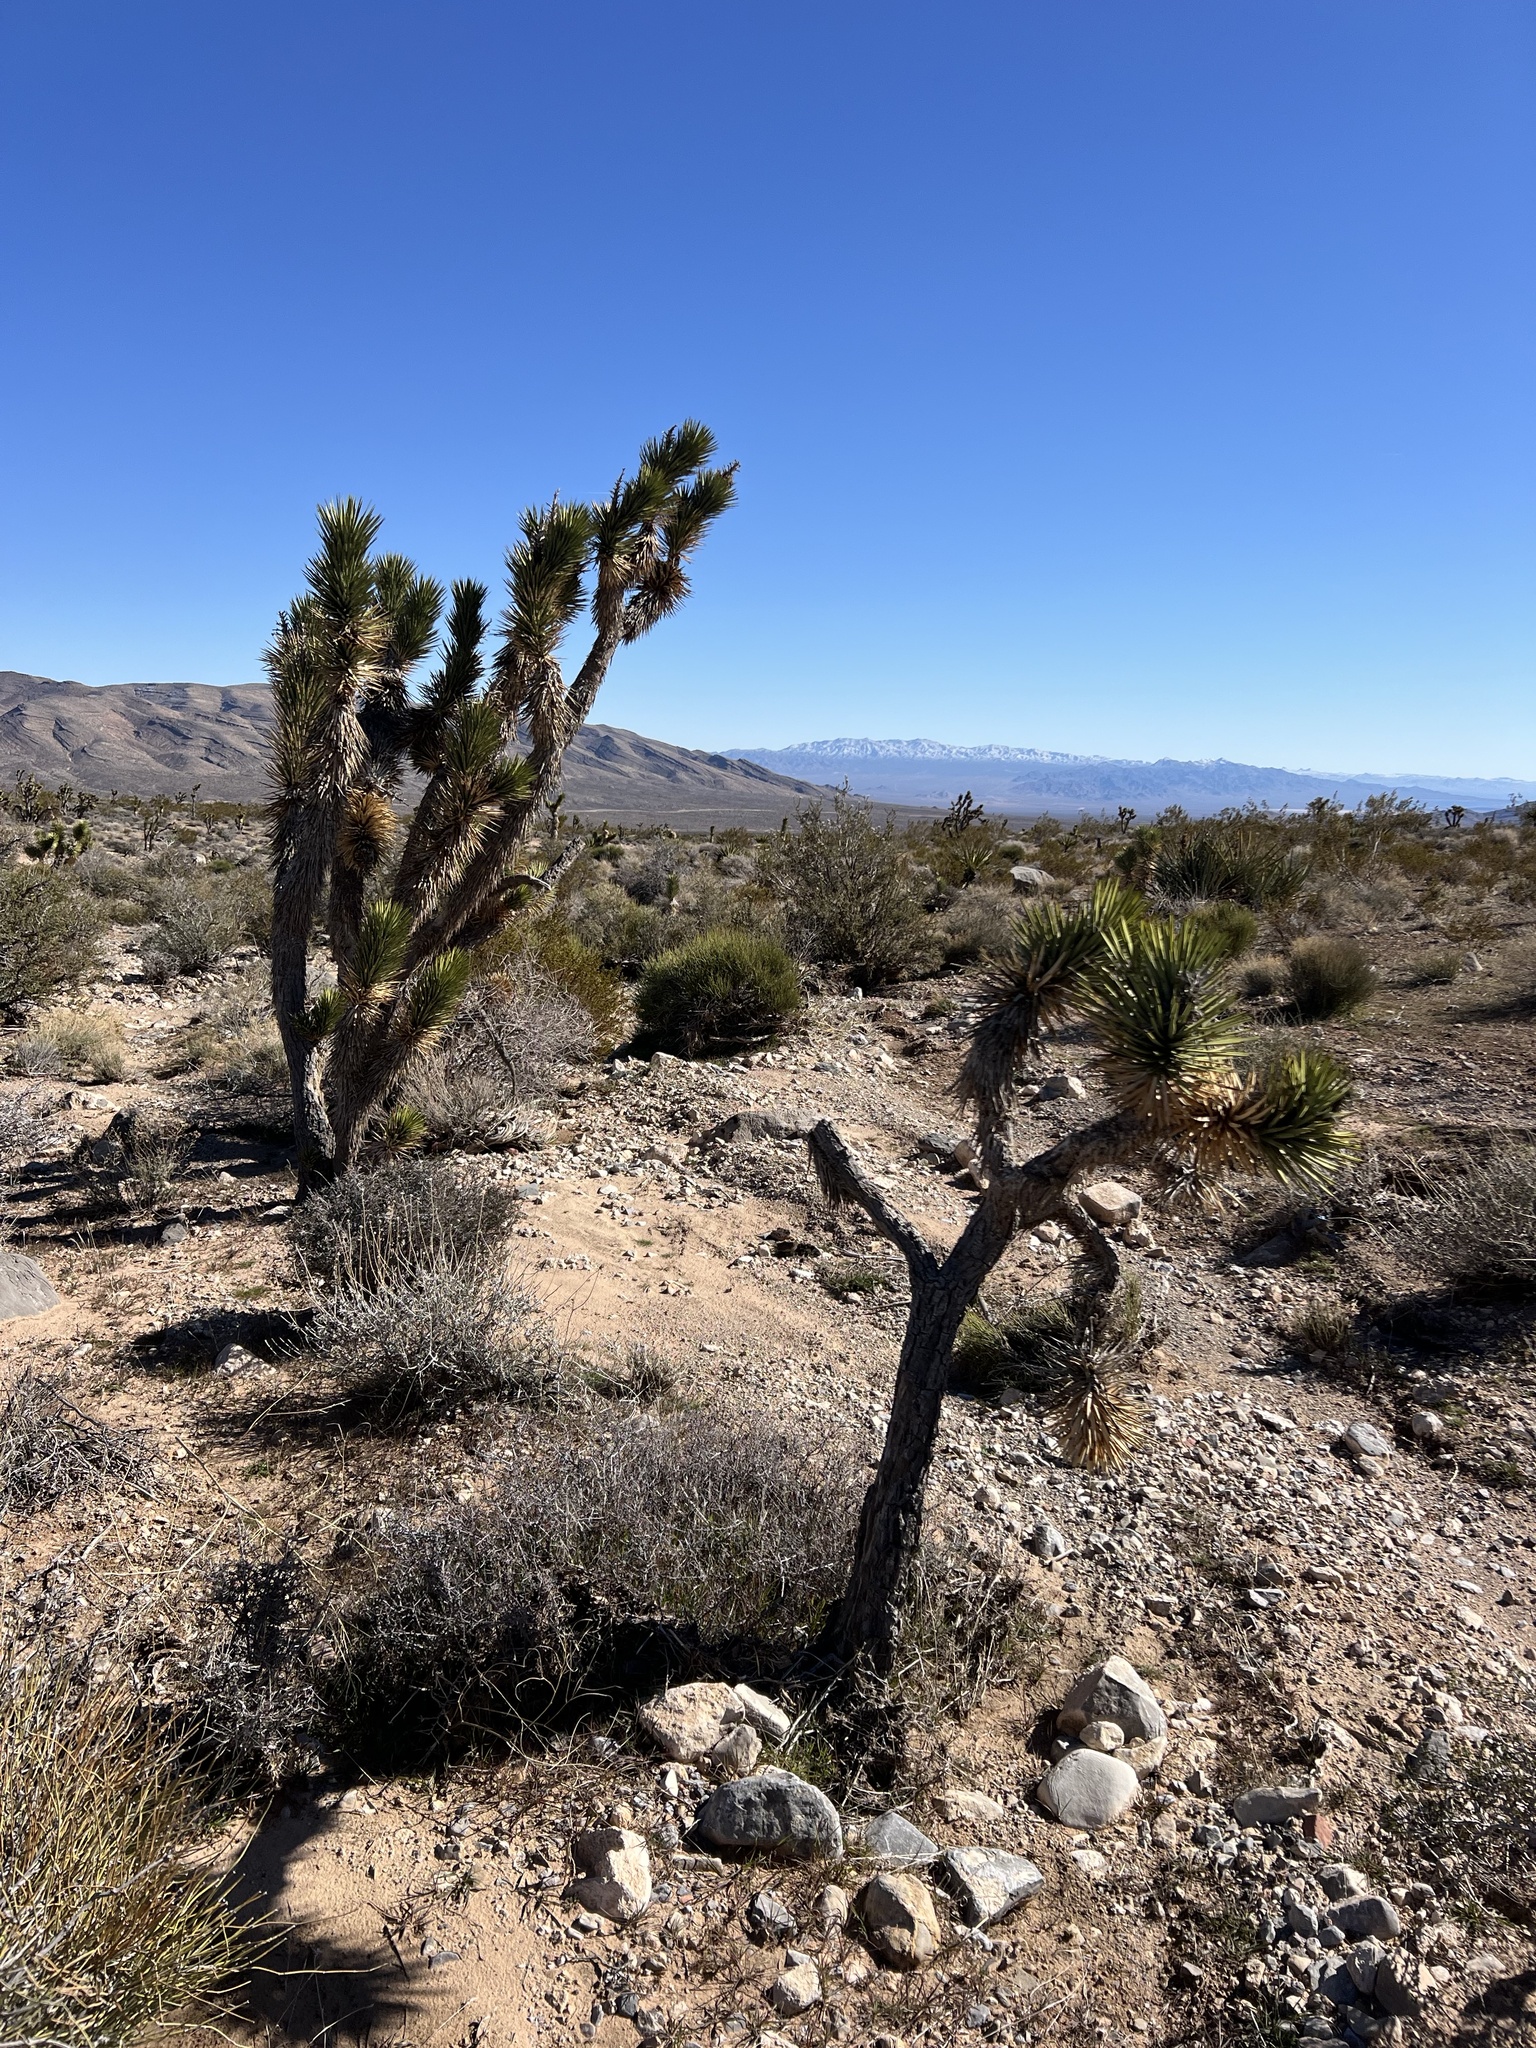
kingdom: Plantae
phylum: Tracheophyta
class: Liliopsida
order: Asparagales
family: Asparagaceae
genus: Yucca
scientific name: Yucca brevifolia
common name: Joshua tree
